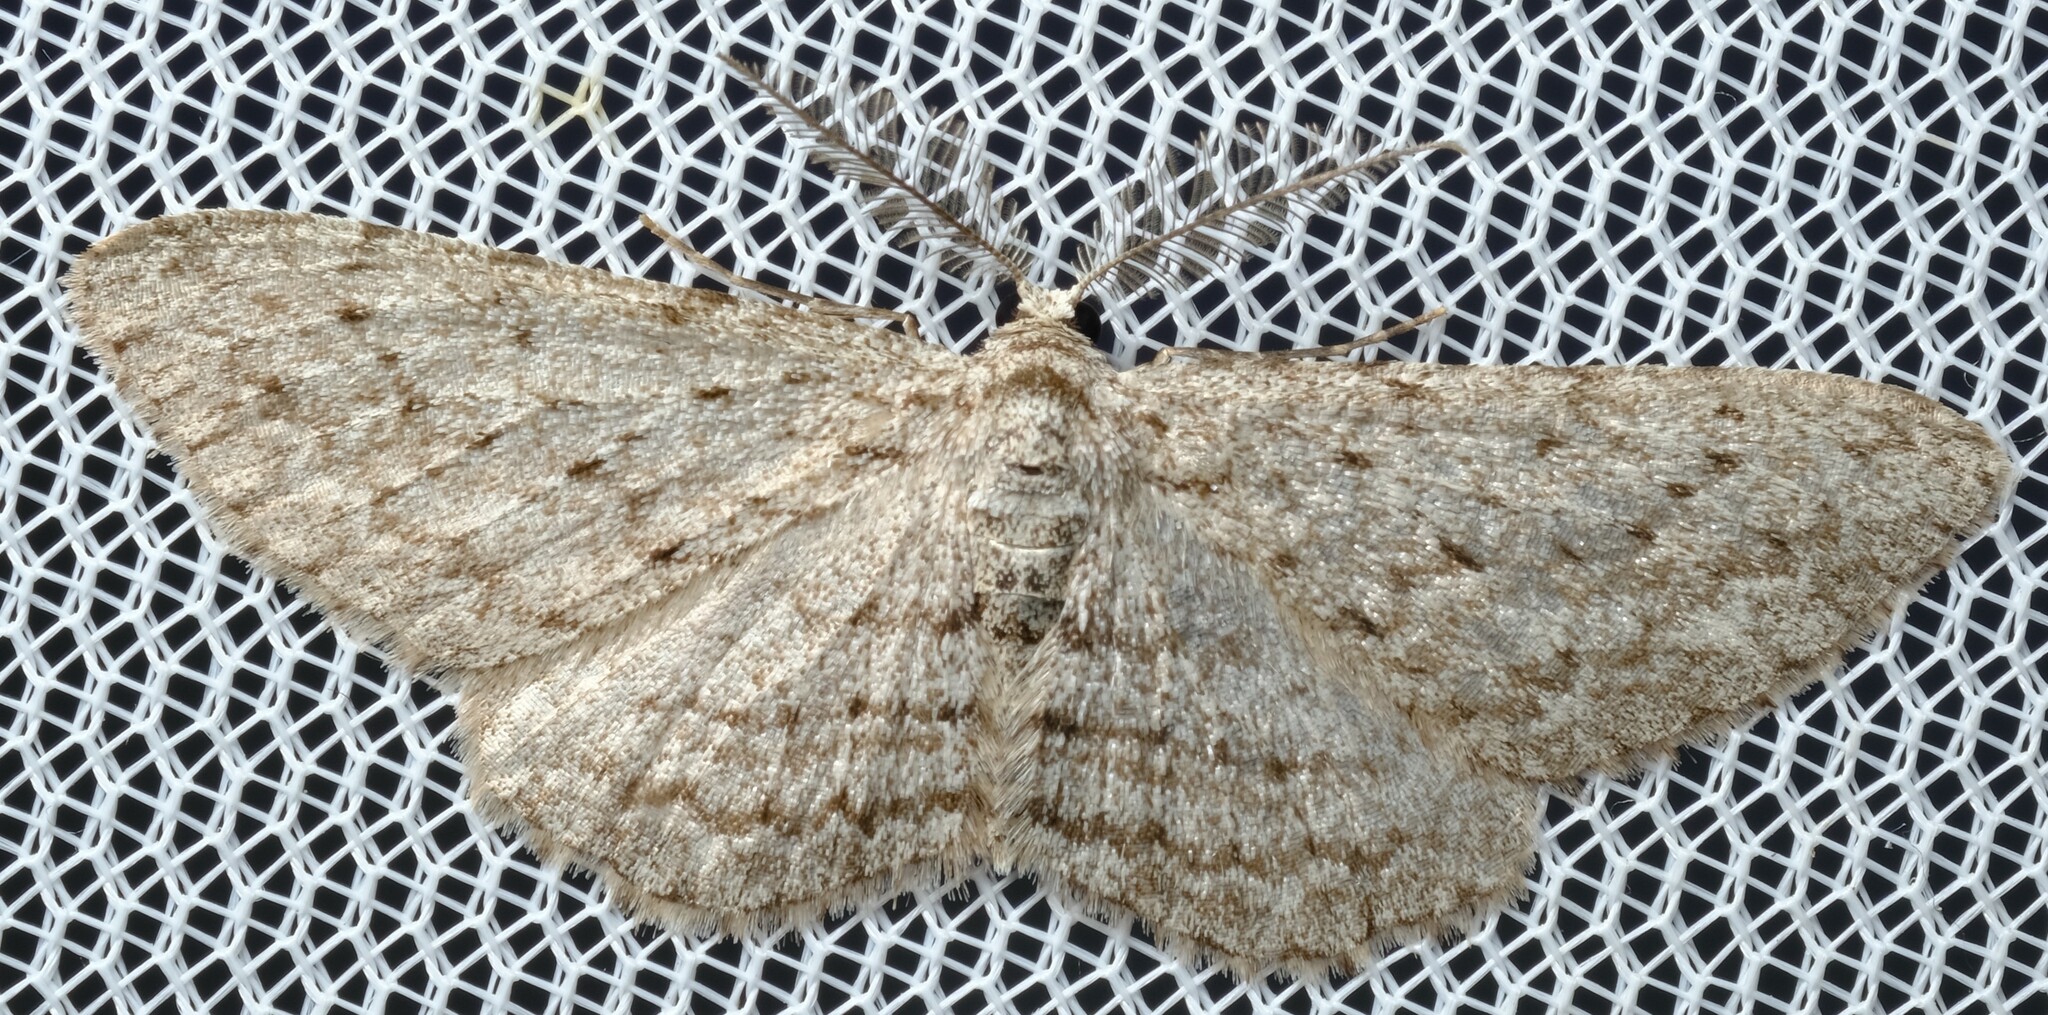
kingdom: Animalia
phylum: Arthropoda
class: Insecta
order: Lepidoptera
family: Geometridae
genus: Phelotis
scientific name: Phelotis cognata
